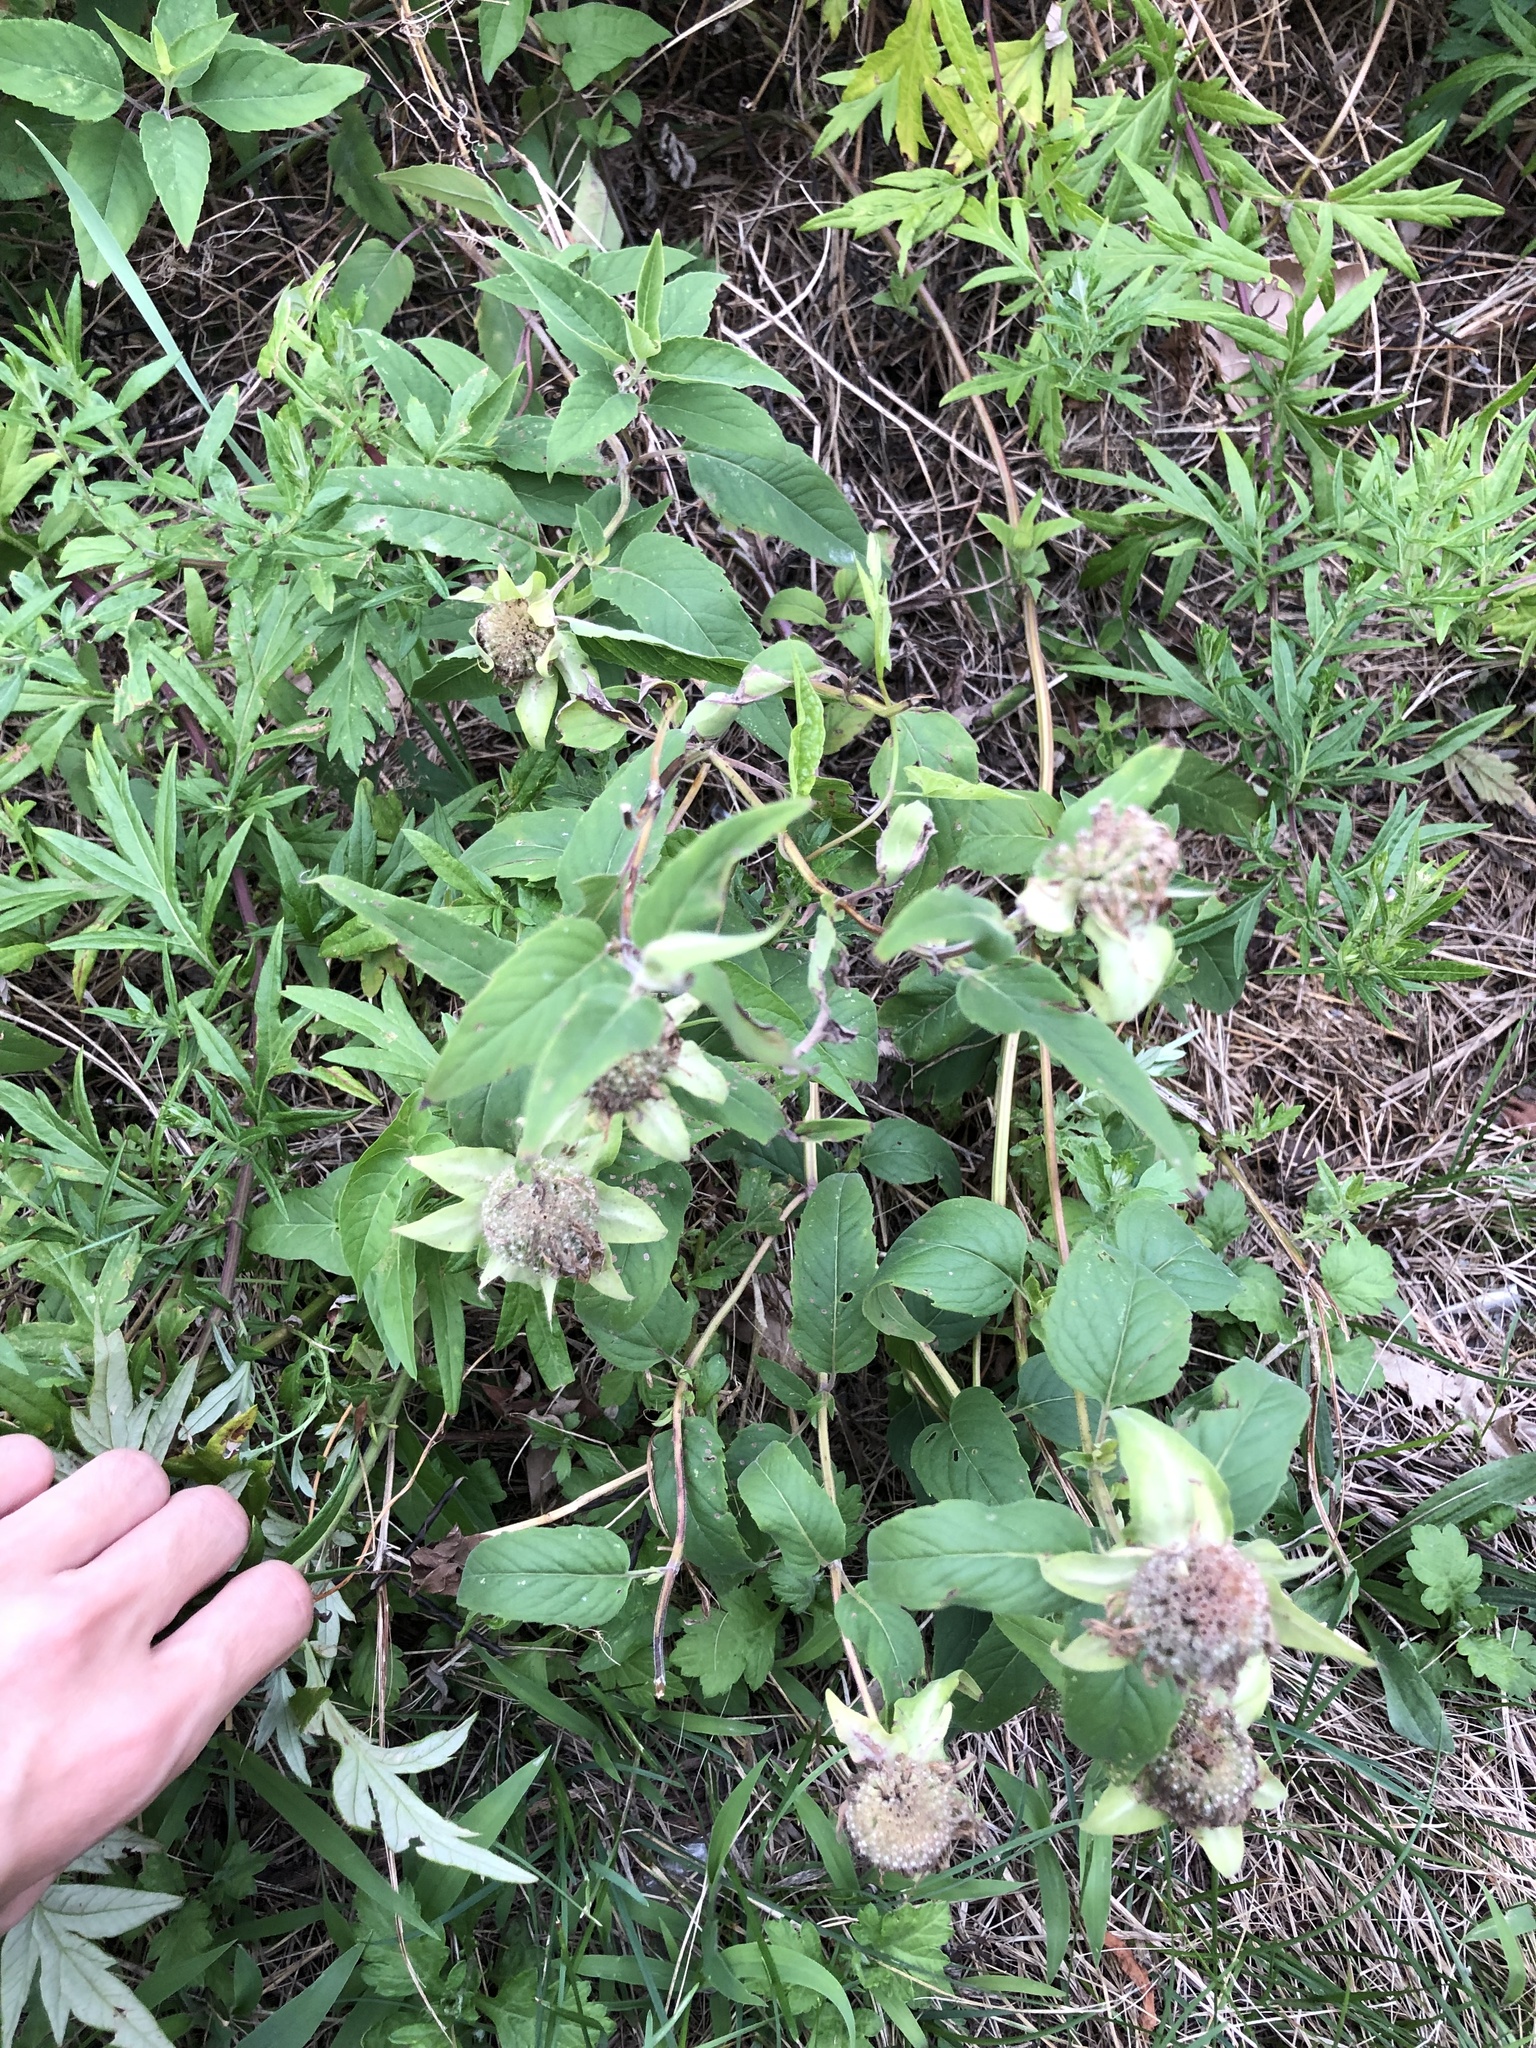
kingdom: Plantae
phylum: Tracheophyta
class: Magnoliopsida
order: Lamiales
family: Lamiaceae
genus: Monarda
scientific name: Monarda fistulosa
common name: Purple beebalm
